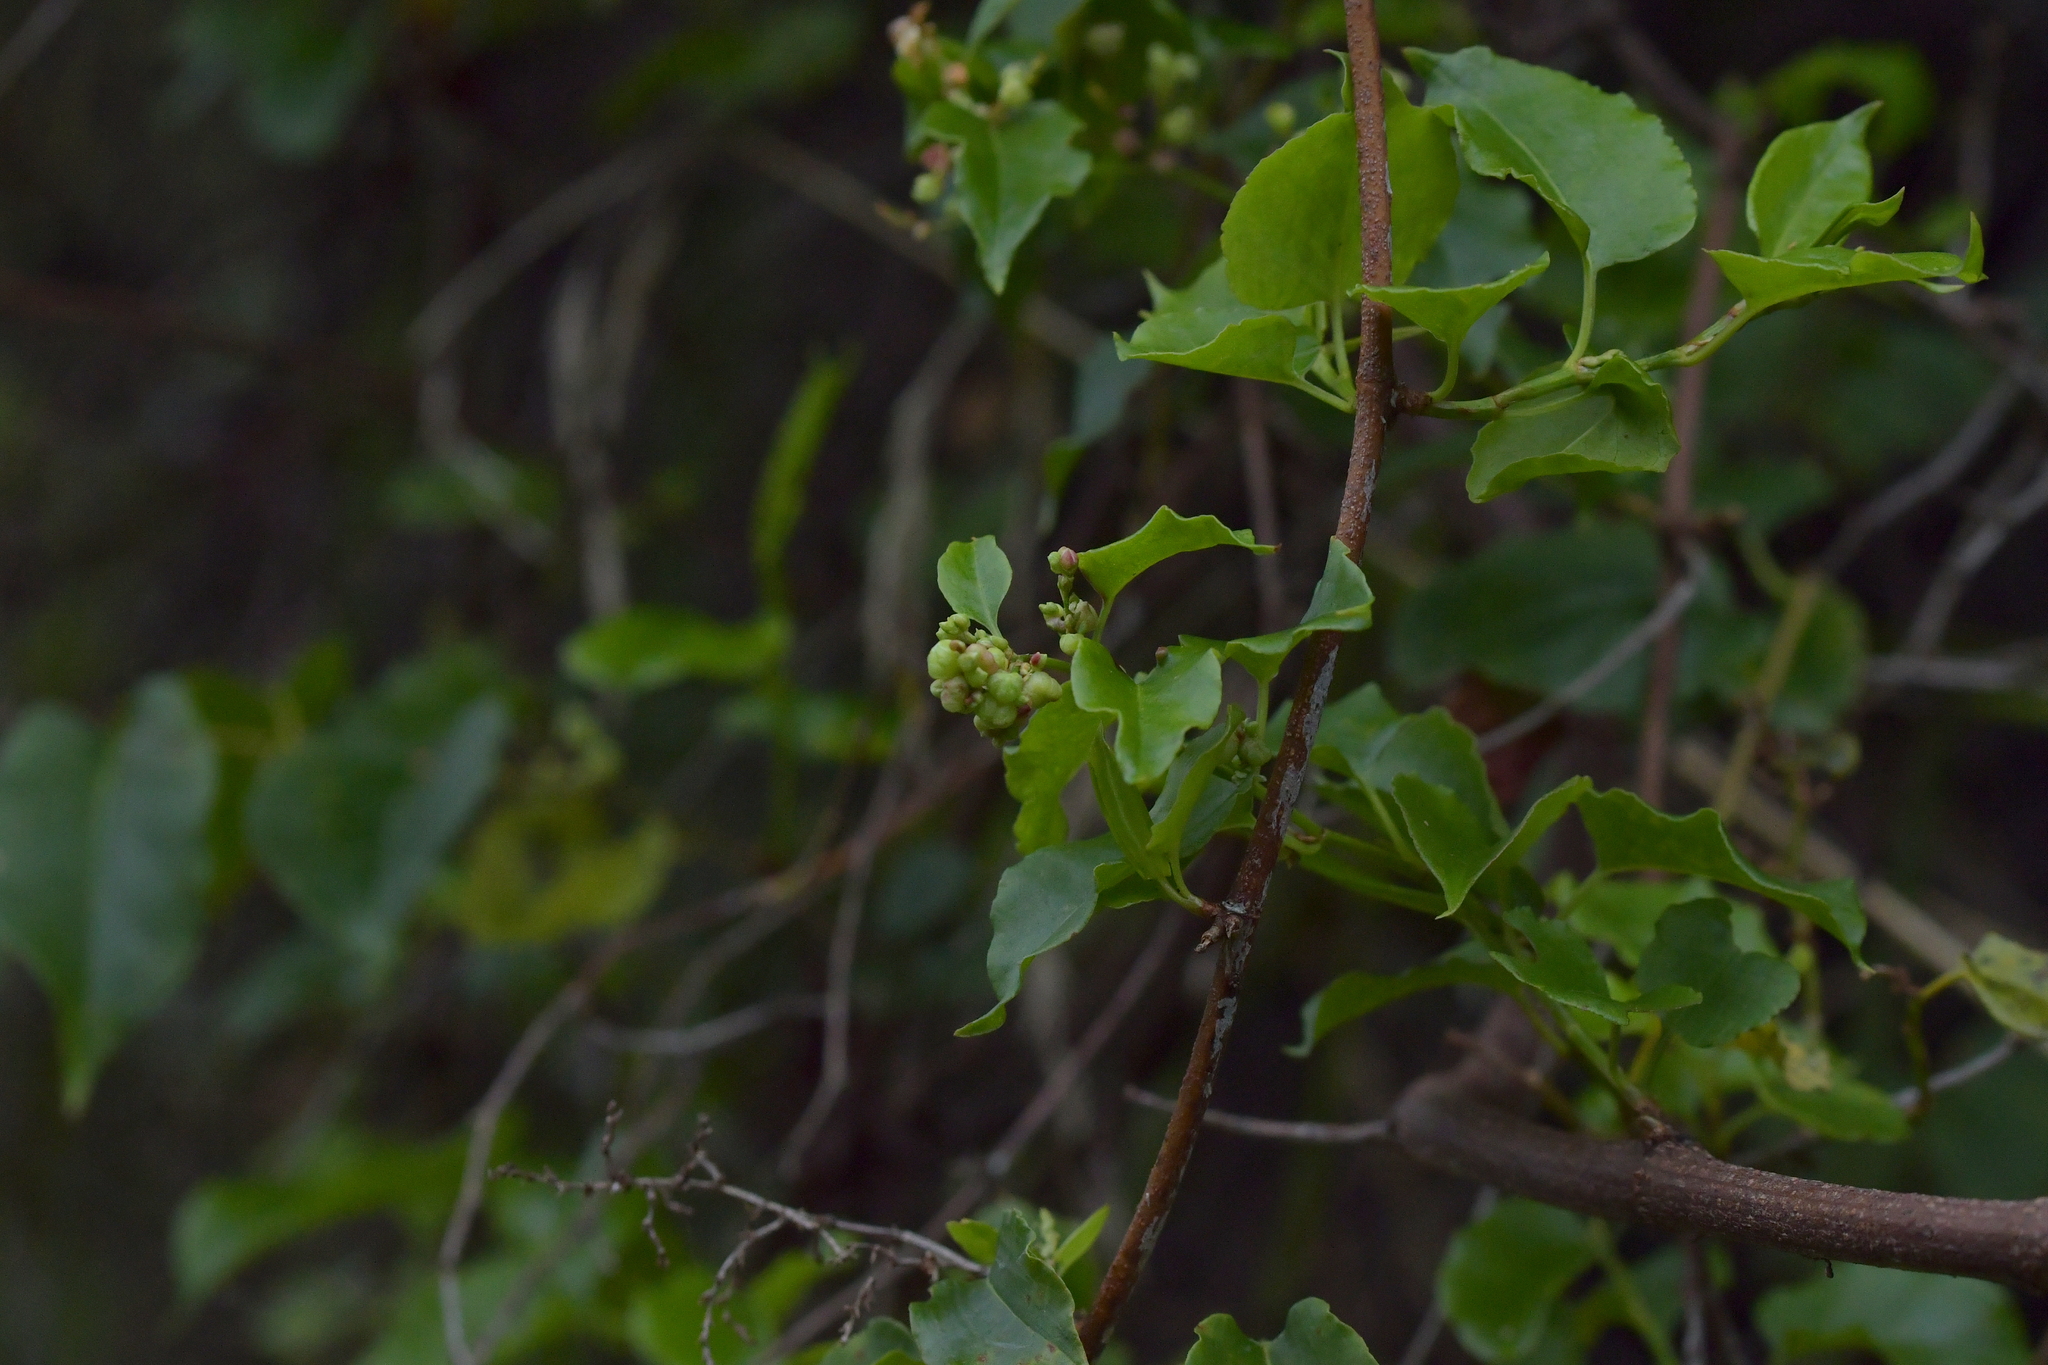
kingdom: Plantae
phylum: Tracheophyta
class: Magnoliopsida
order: Caryophyllales
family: Polygonaceae
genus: Muehlenbeckia
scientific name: Muehlenbeckia australis
